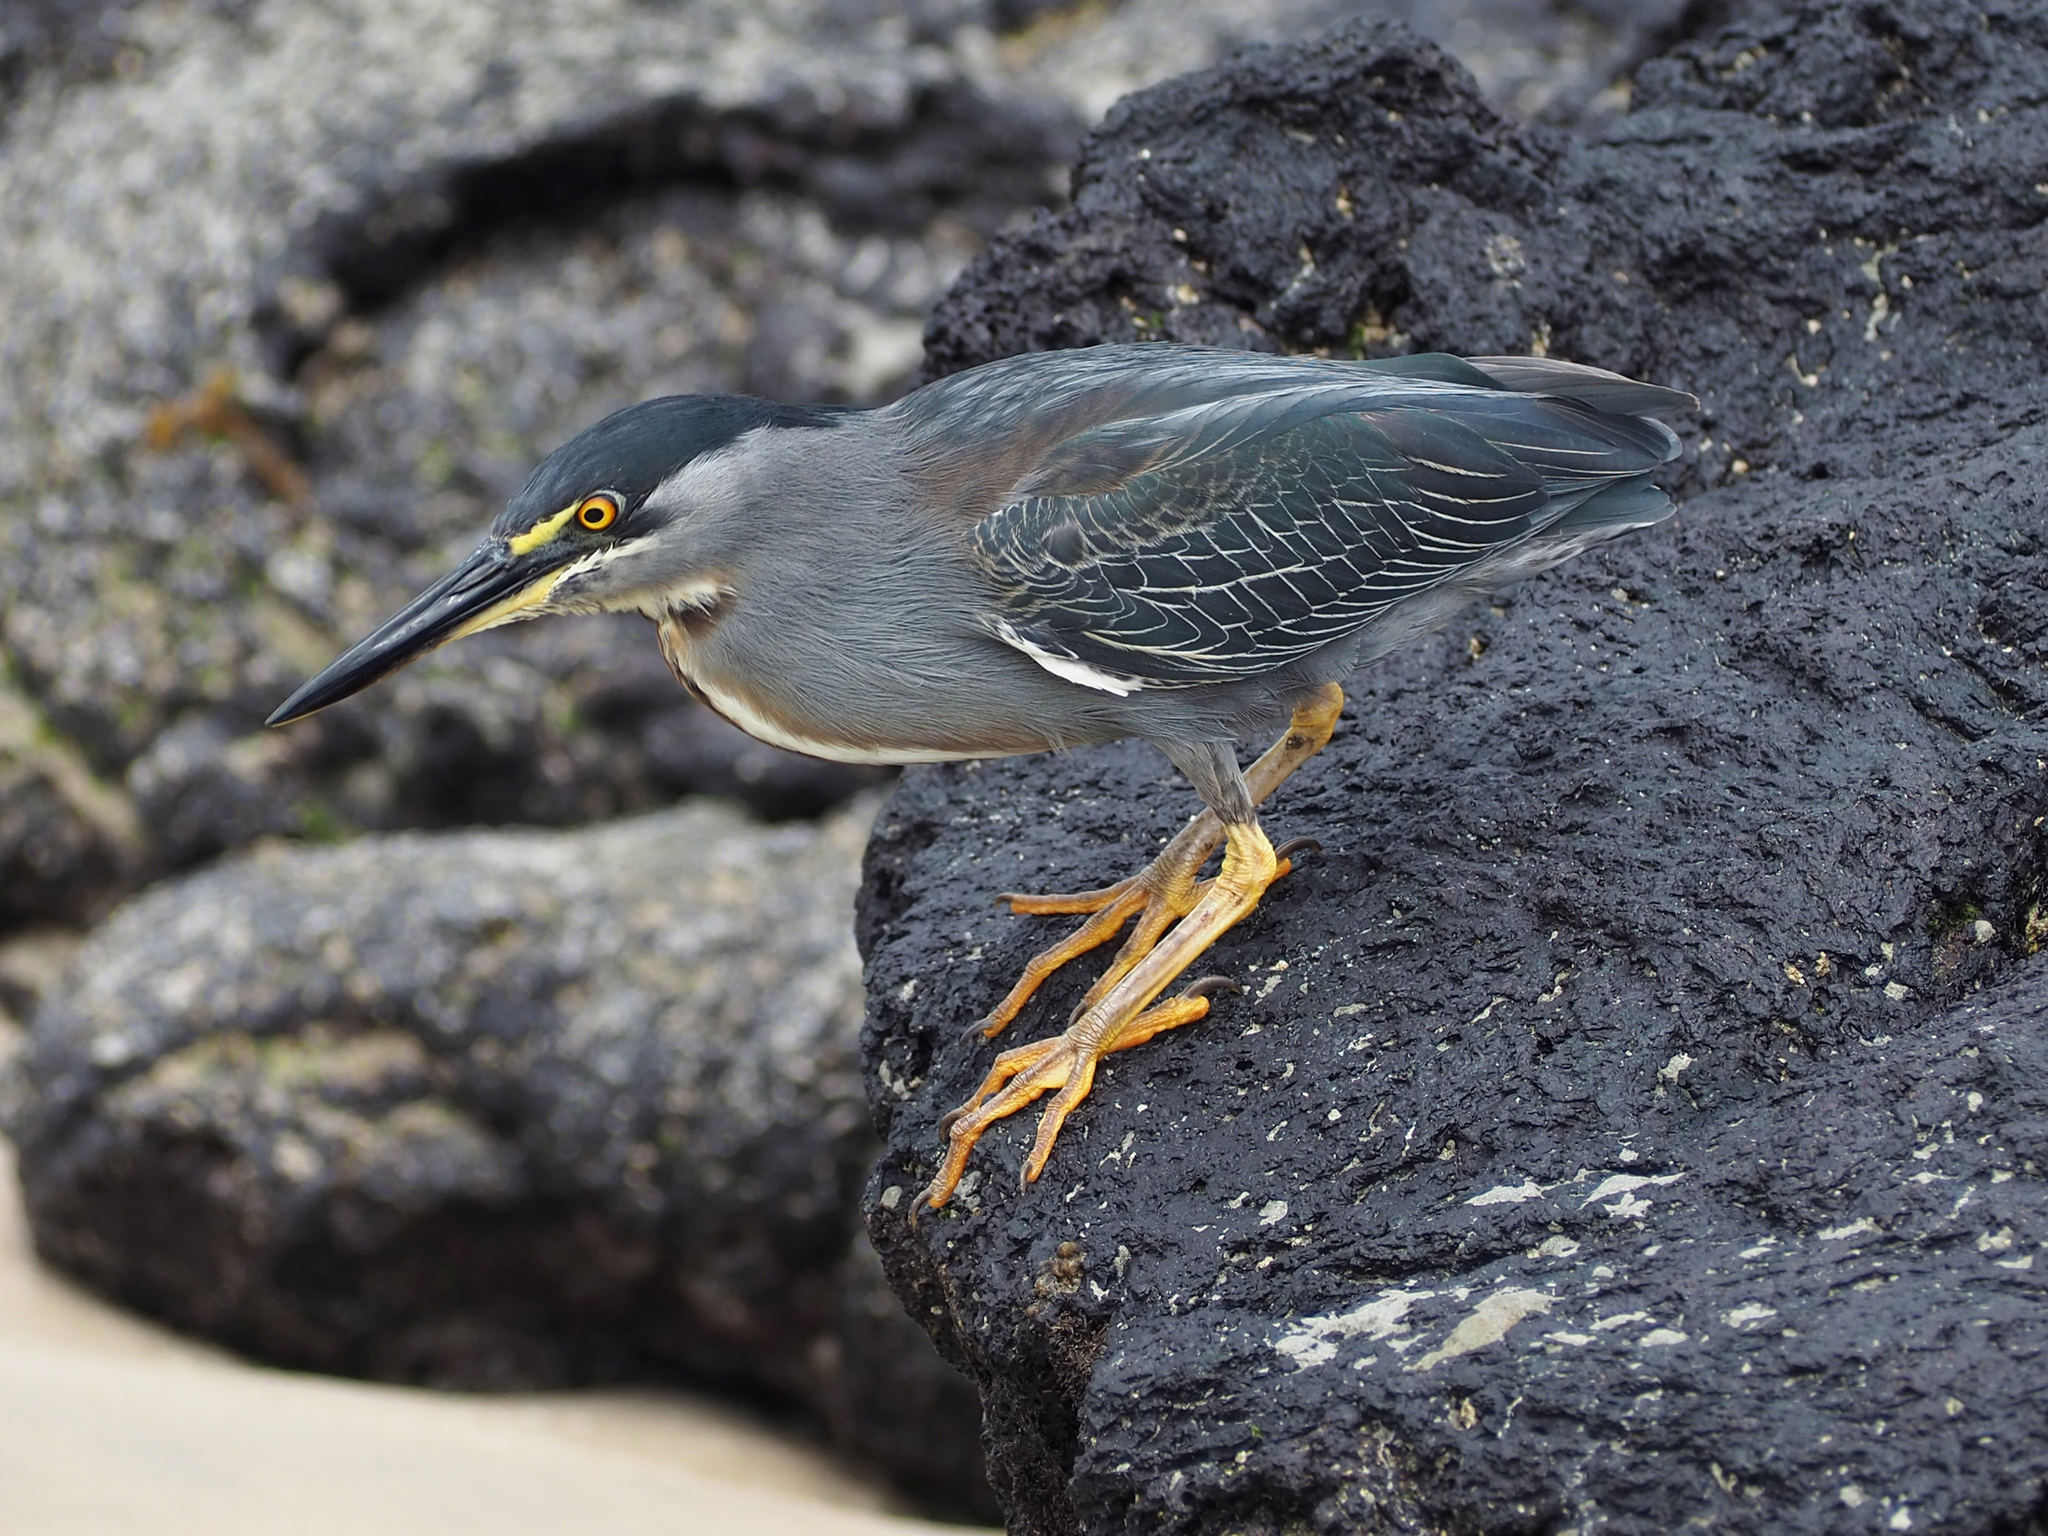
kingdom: Animalia
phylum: Chordata
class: Aves
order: Pelecaniformes
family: Ardeidae
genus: Butorides
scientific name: Butorides striata
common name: Striated heron
